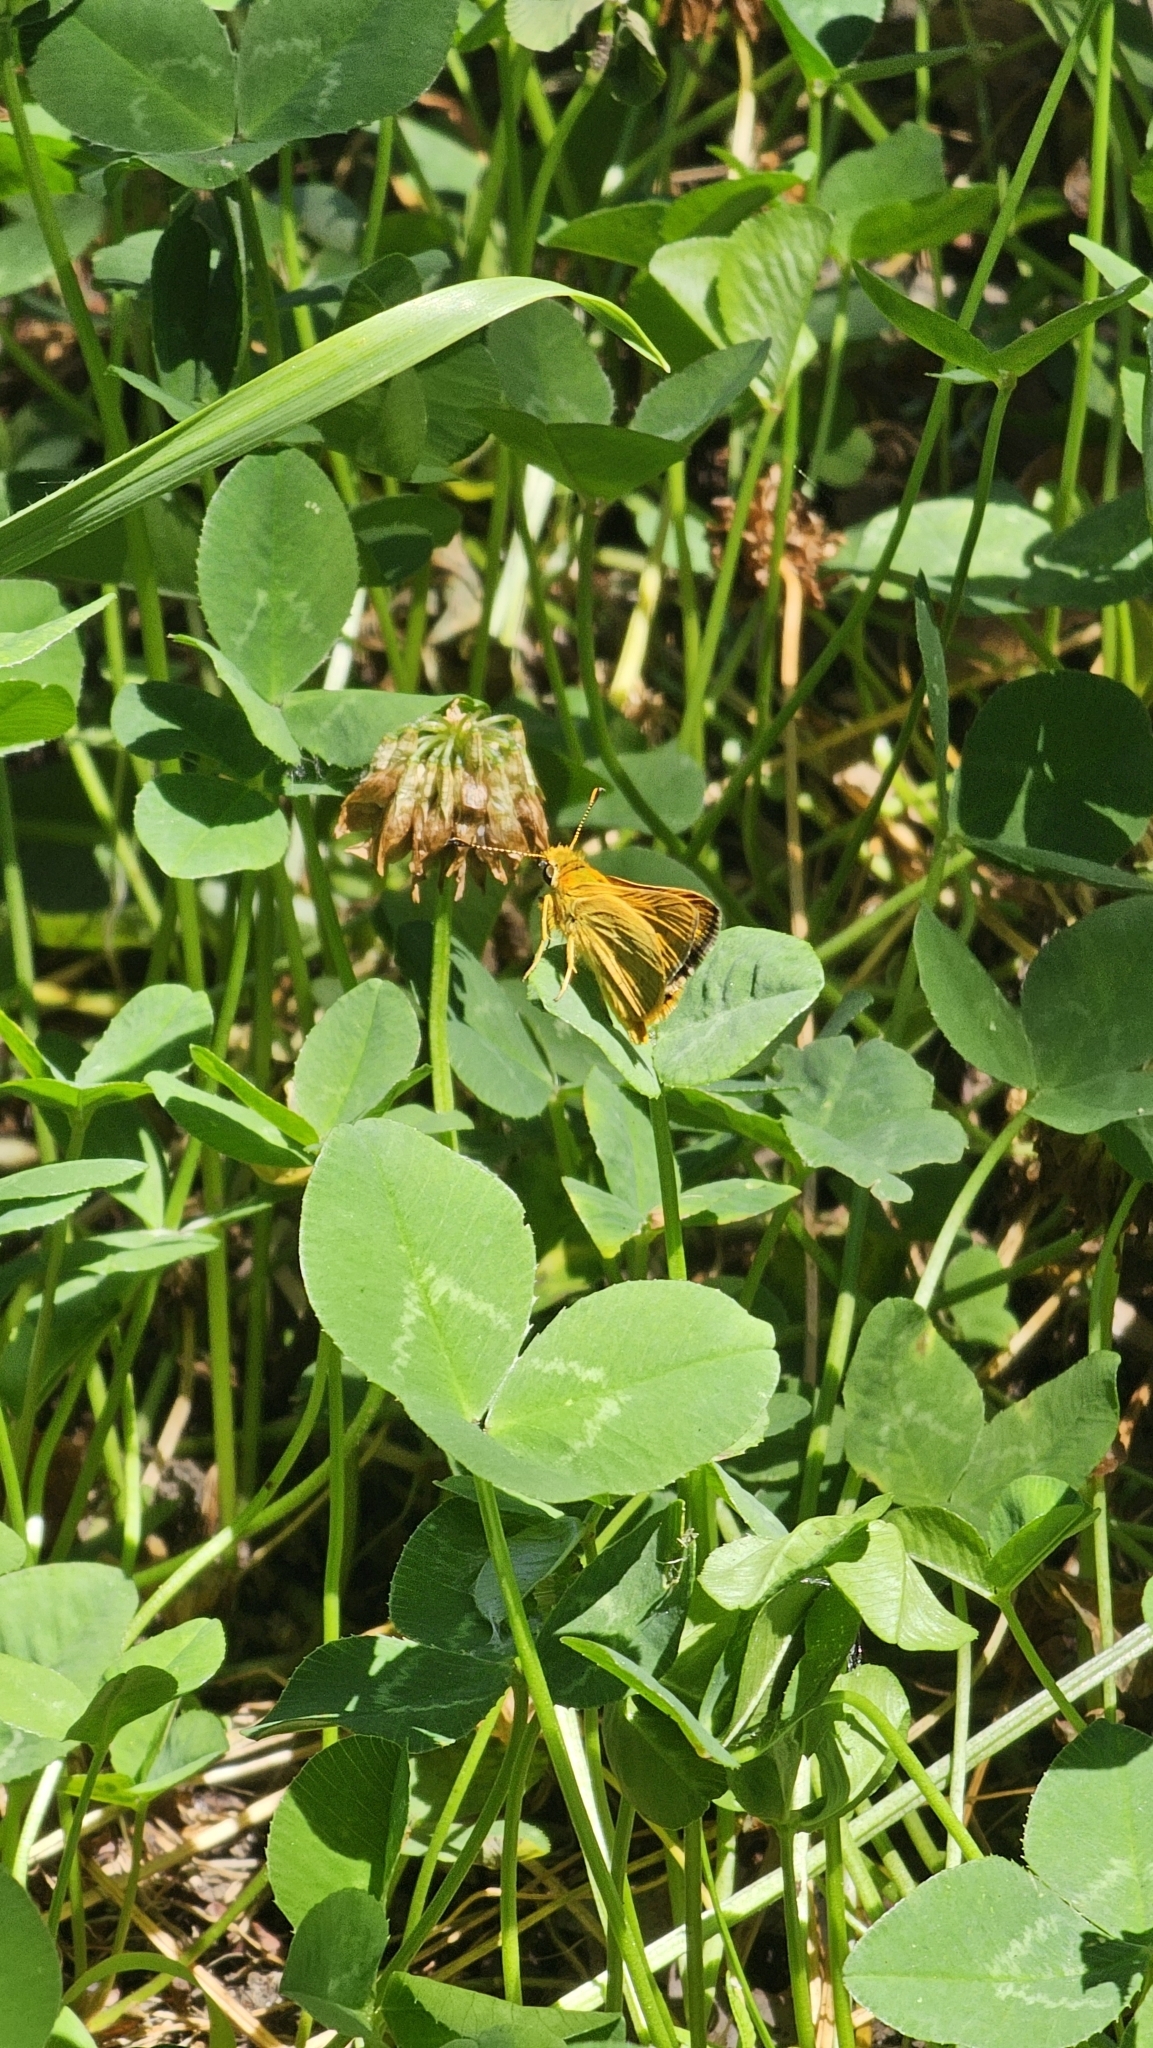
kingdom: Animalia
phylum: Arthropoda
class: Insecta
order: Lepidoptera
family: Hesperiidae
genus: Ocybadistes
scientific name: Ocybadistes walkeri
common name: Yellow-banded dart
